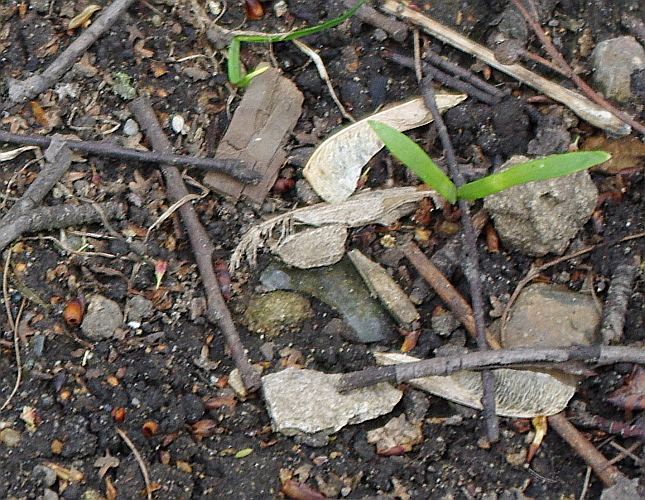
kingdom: Plantae
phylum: Tracheophyta
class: Magnoliopsida
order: Sapindales
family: Sapindaceae
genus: Acer
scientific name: Acer negundo
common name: Ashleaf maple
